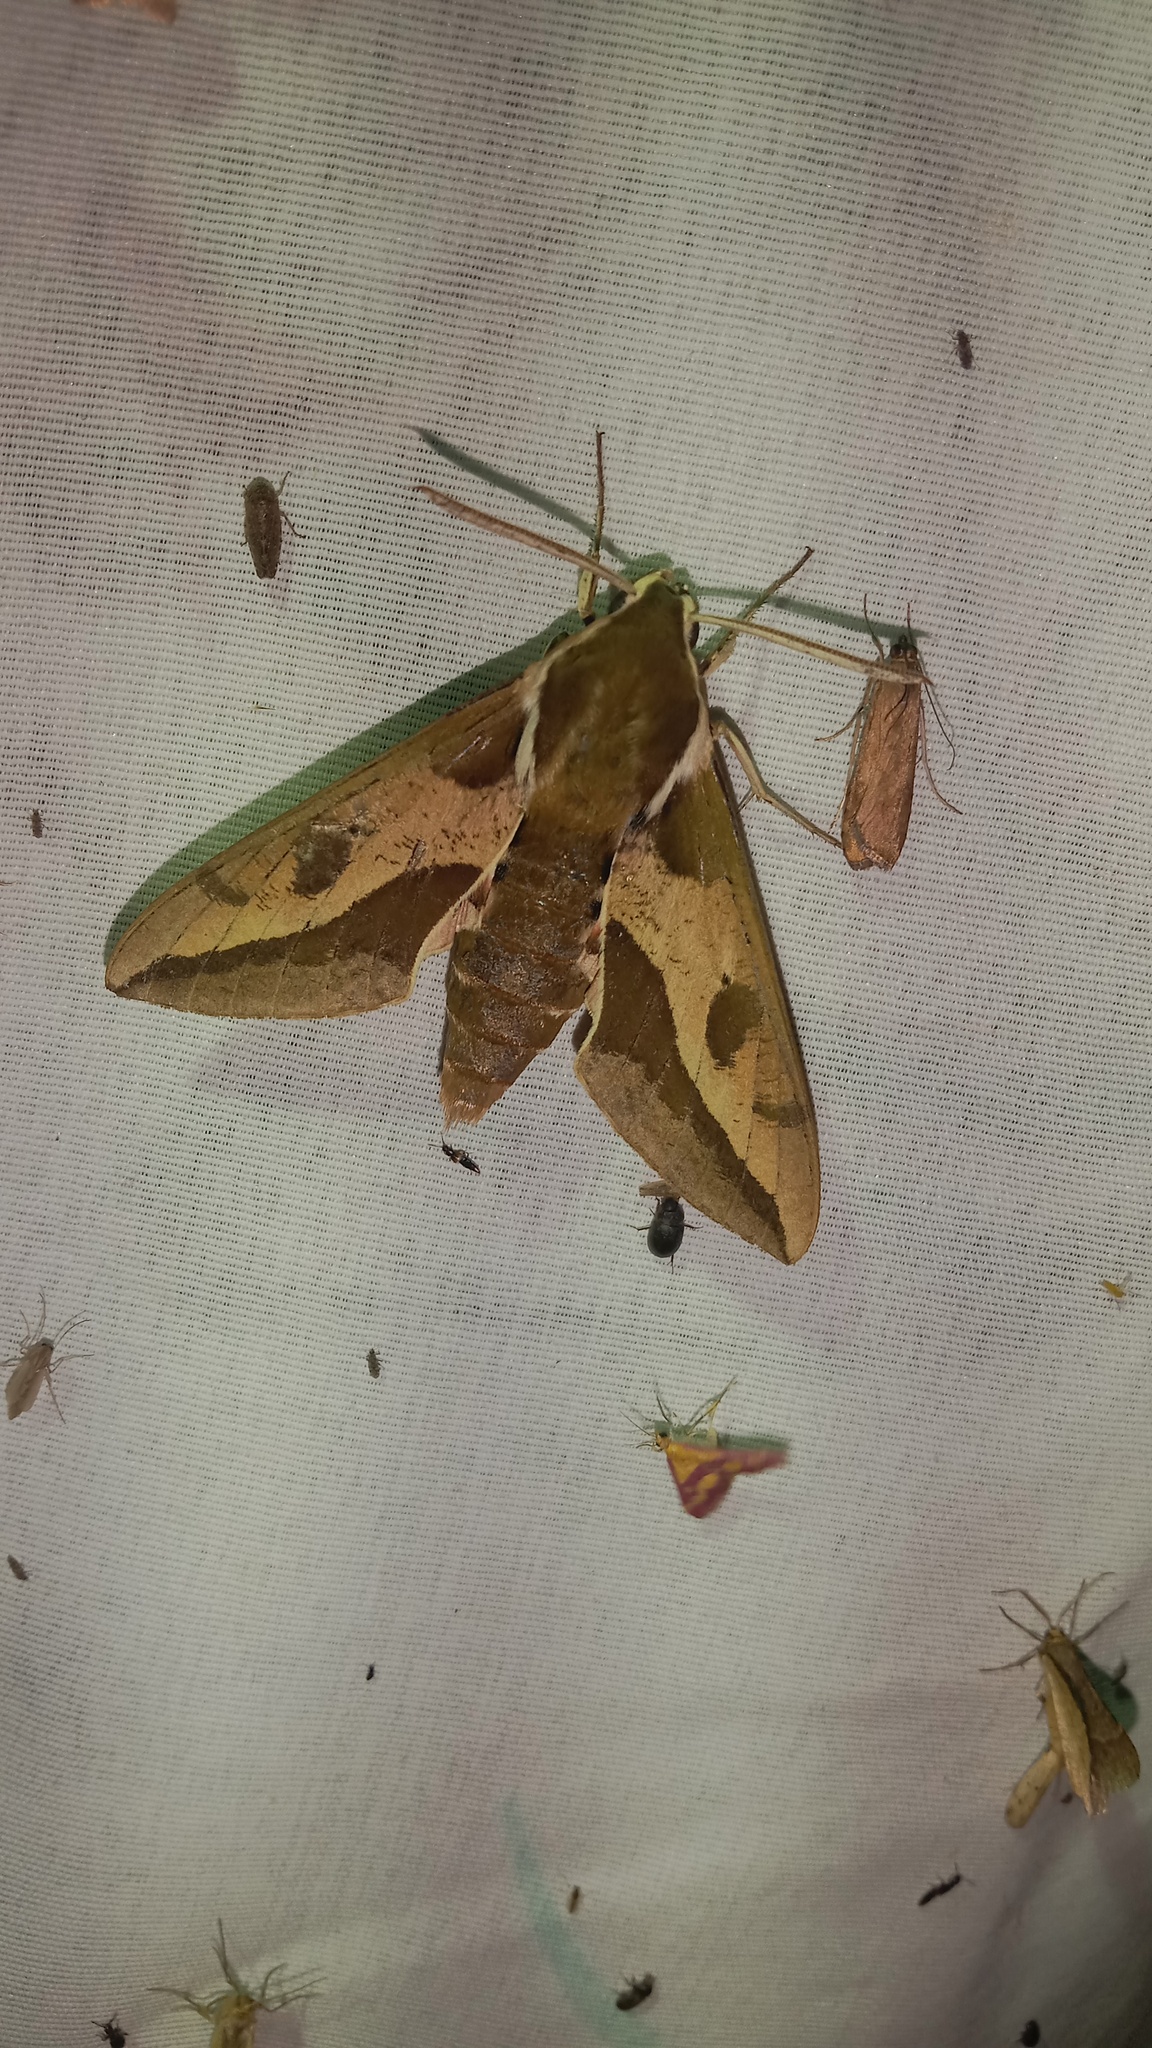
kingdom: Animalia
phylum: Arthropoda
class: Insecta
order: Lepidoptera
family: Sphingidae
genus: Hyles
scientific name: Hyles euphorbiae
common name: Spurge hawk-moth
